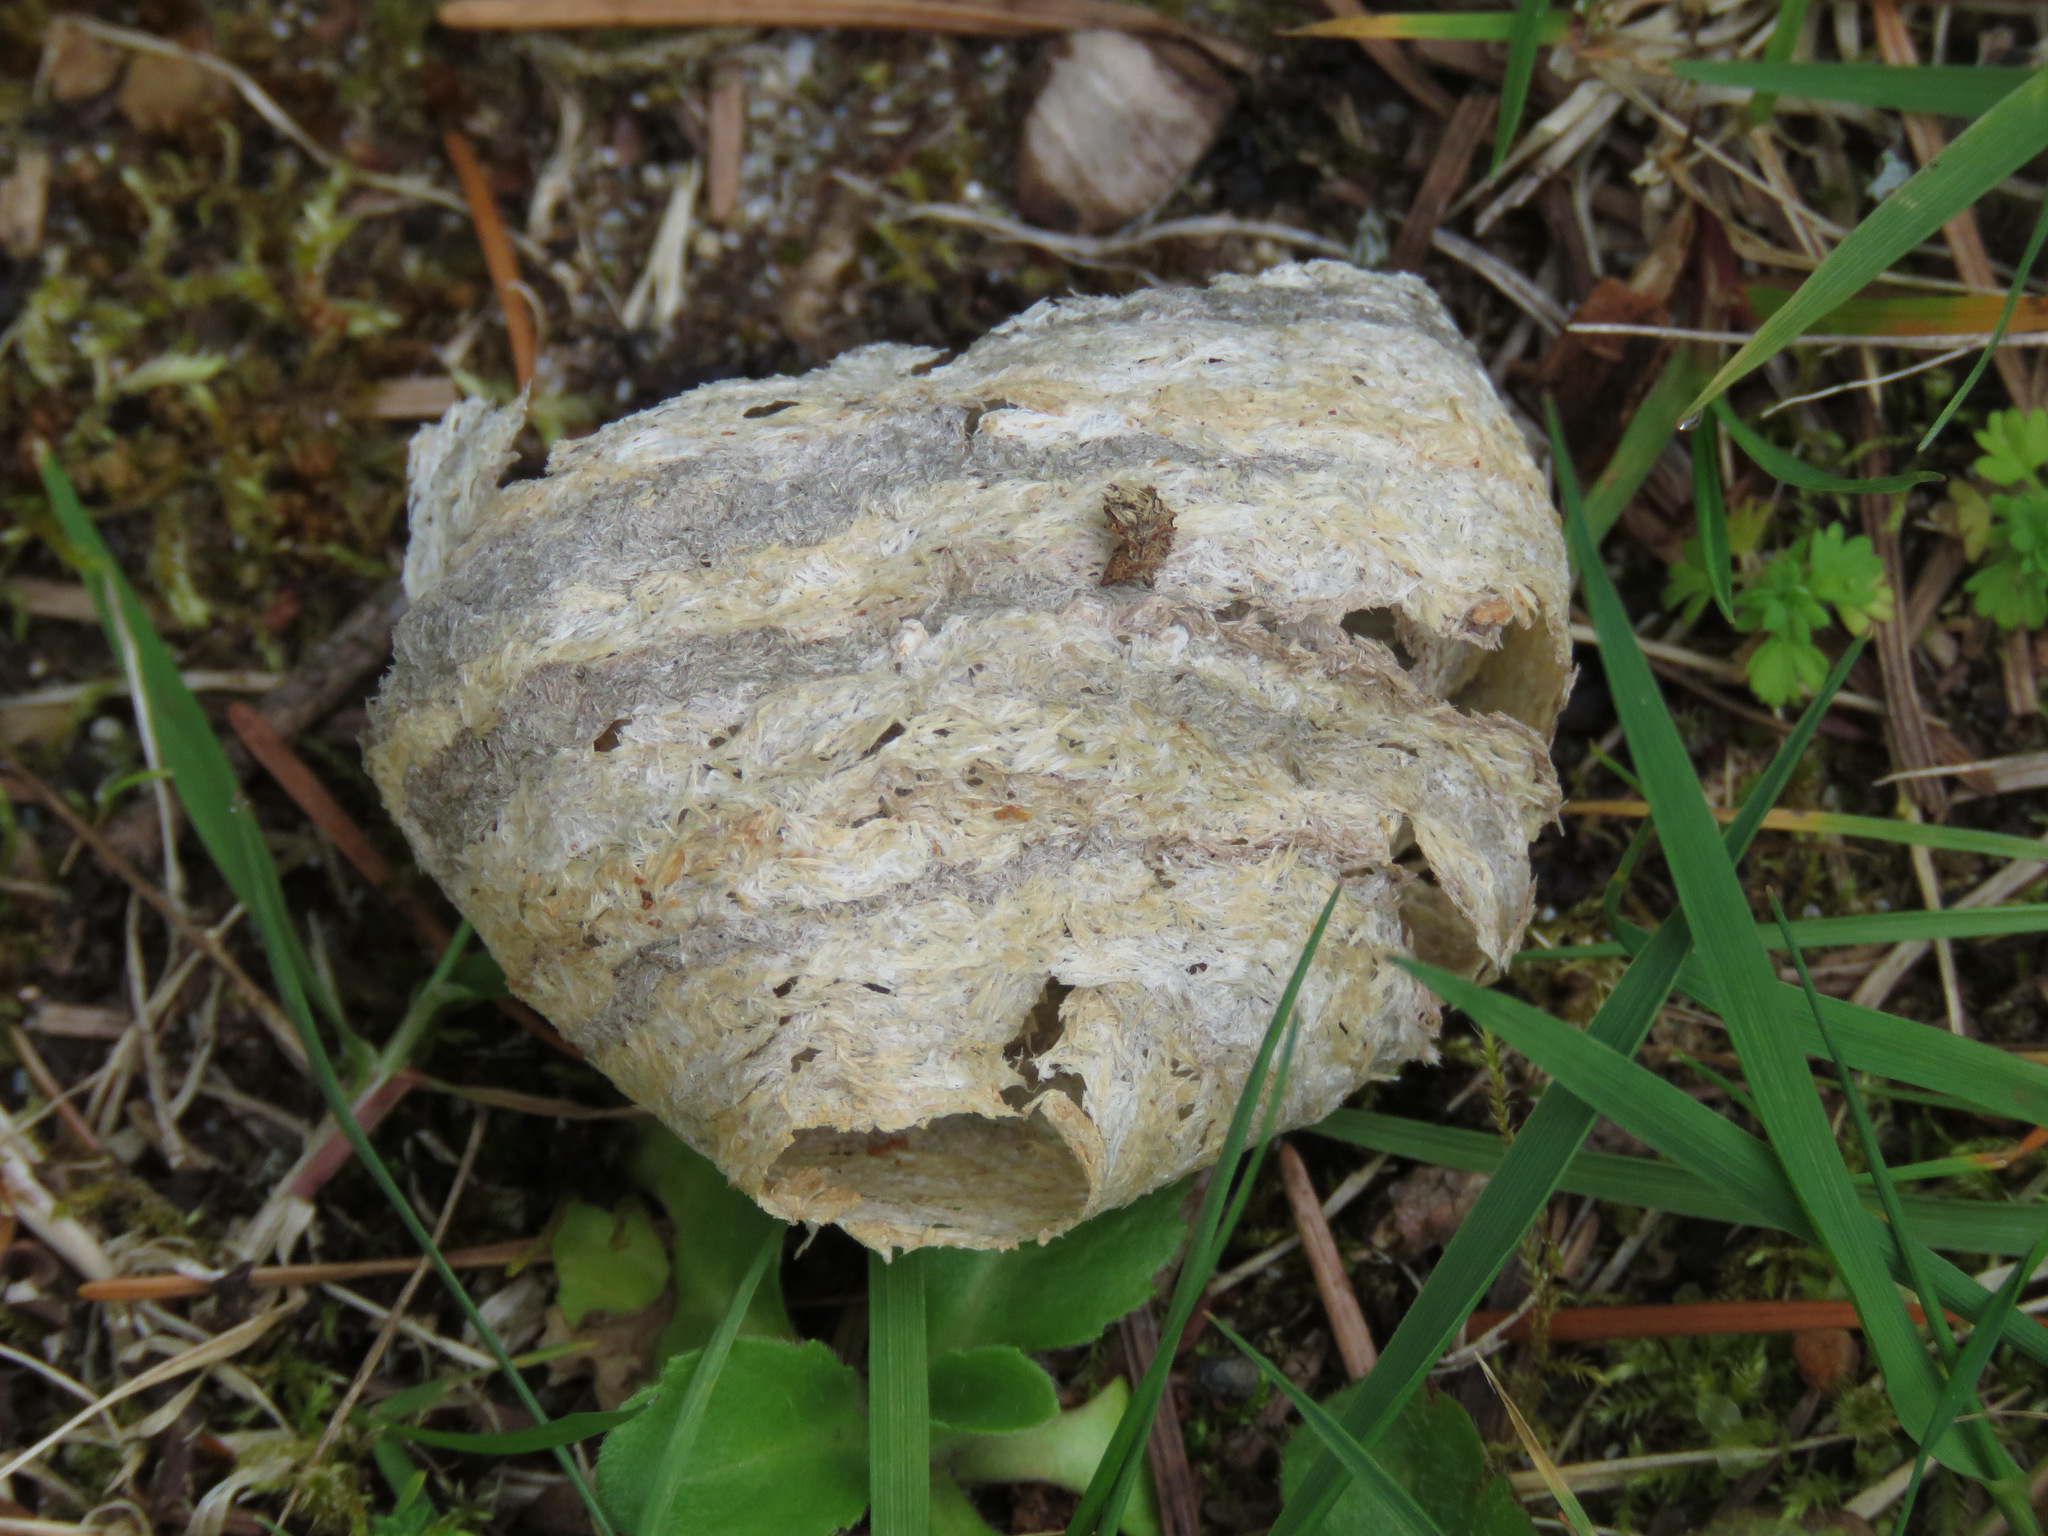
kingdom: Animalia
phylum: Arthropoda
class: Insecta
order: Hymenoptera
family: Vespidae
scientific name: Vespidae
